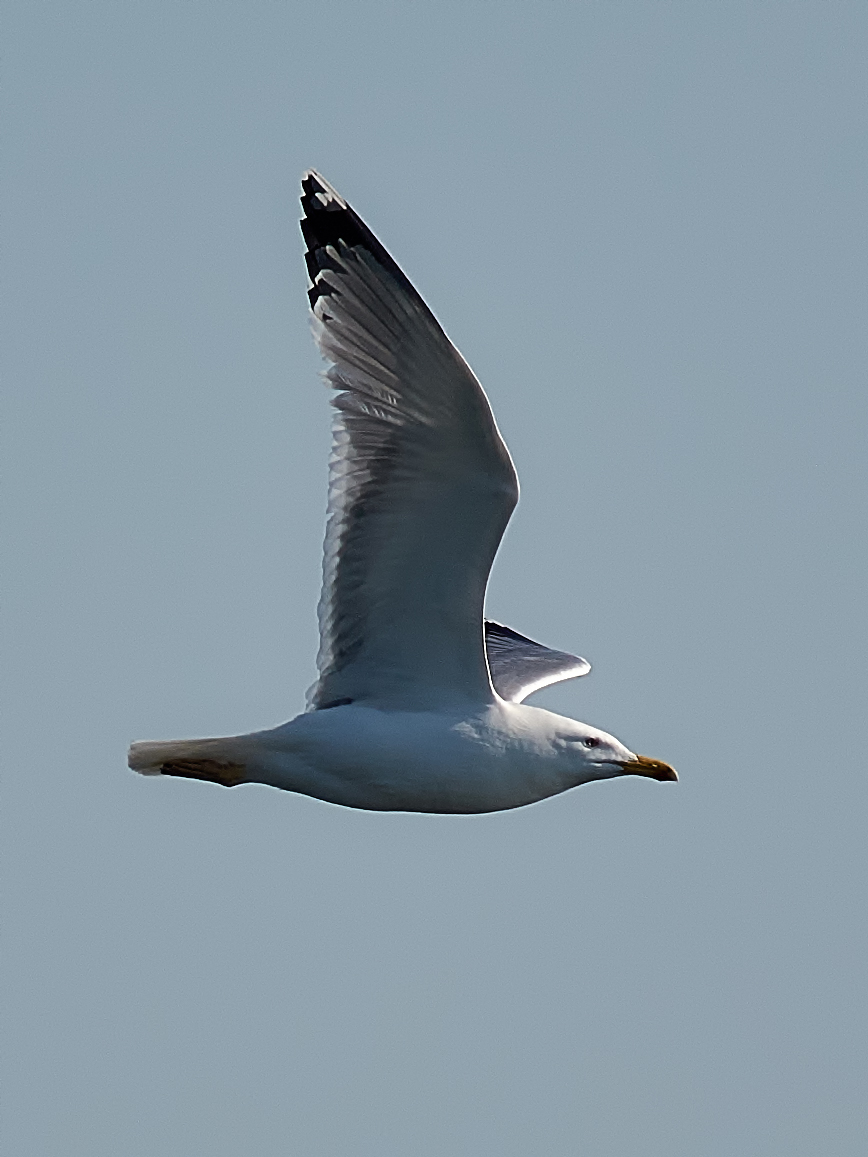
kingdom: Animalia
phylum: Chordata
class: Aves
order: Charadriiformes
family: Laridae
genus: Larus
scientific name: Larus cachinnans
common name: Caspian gull
